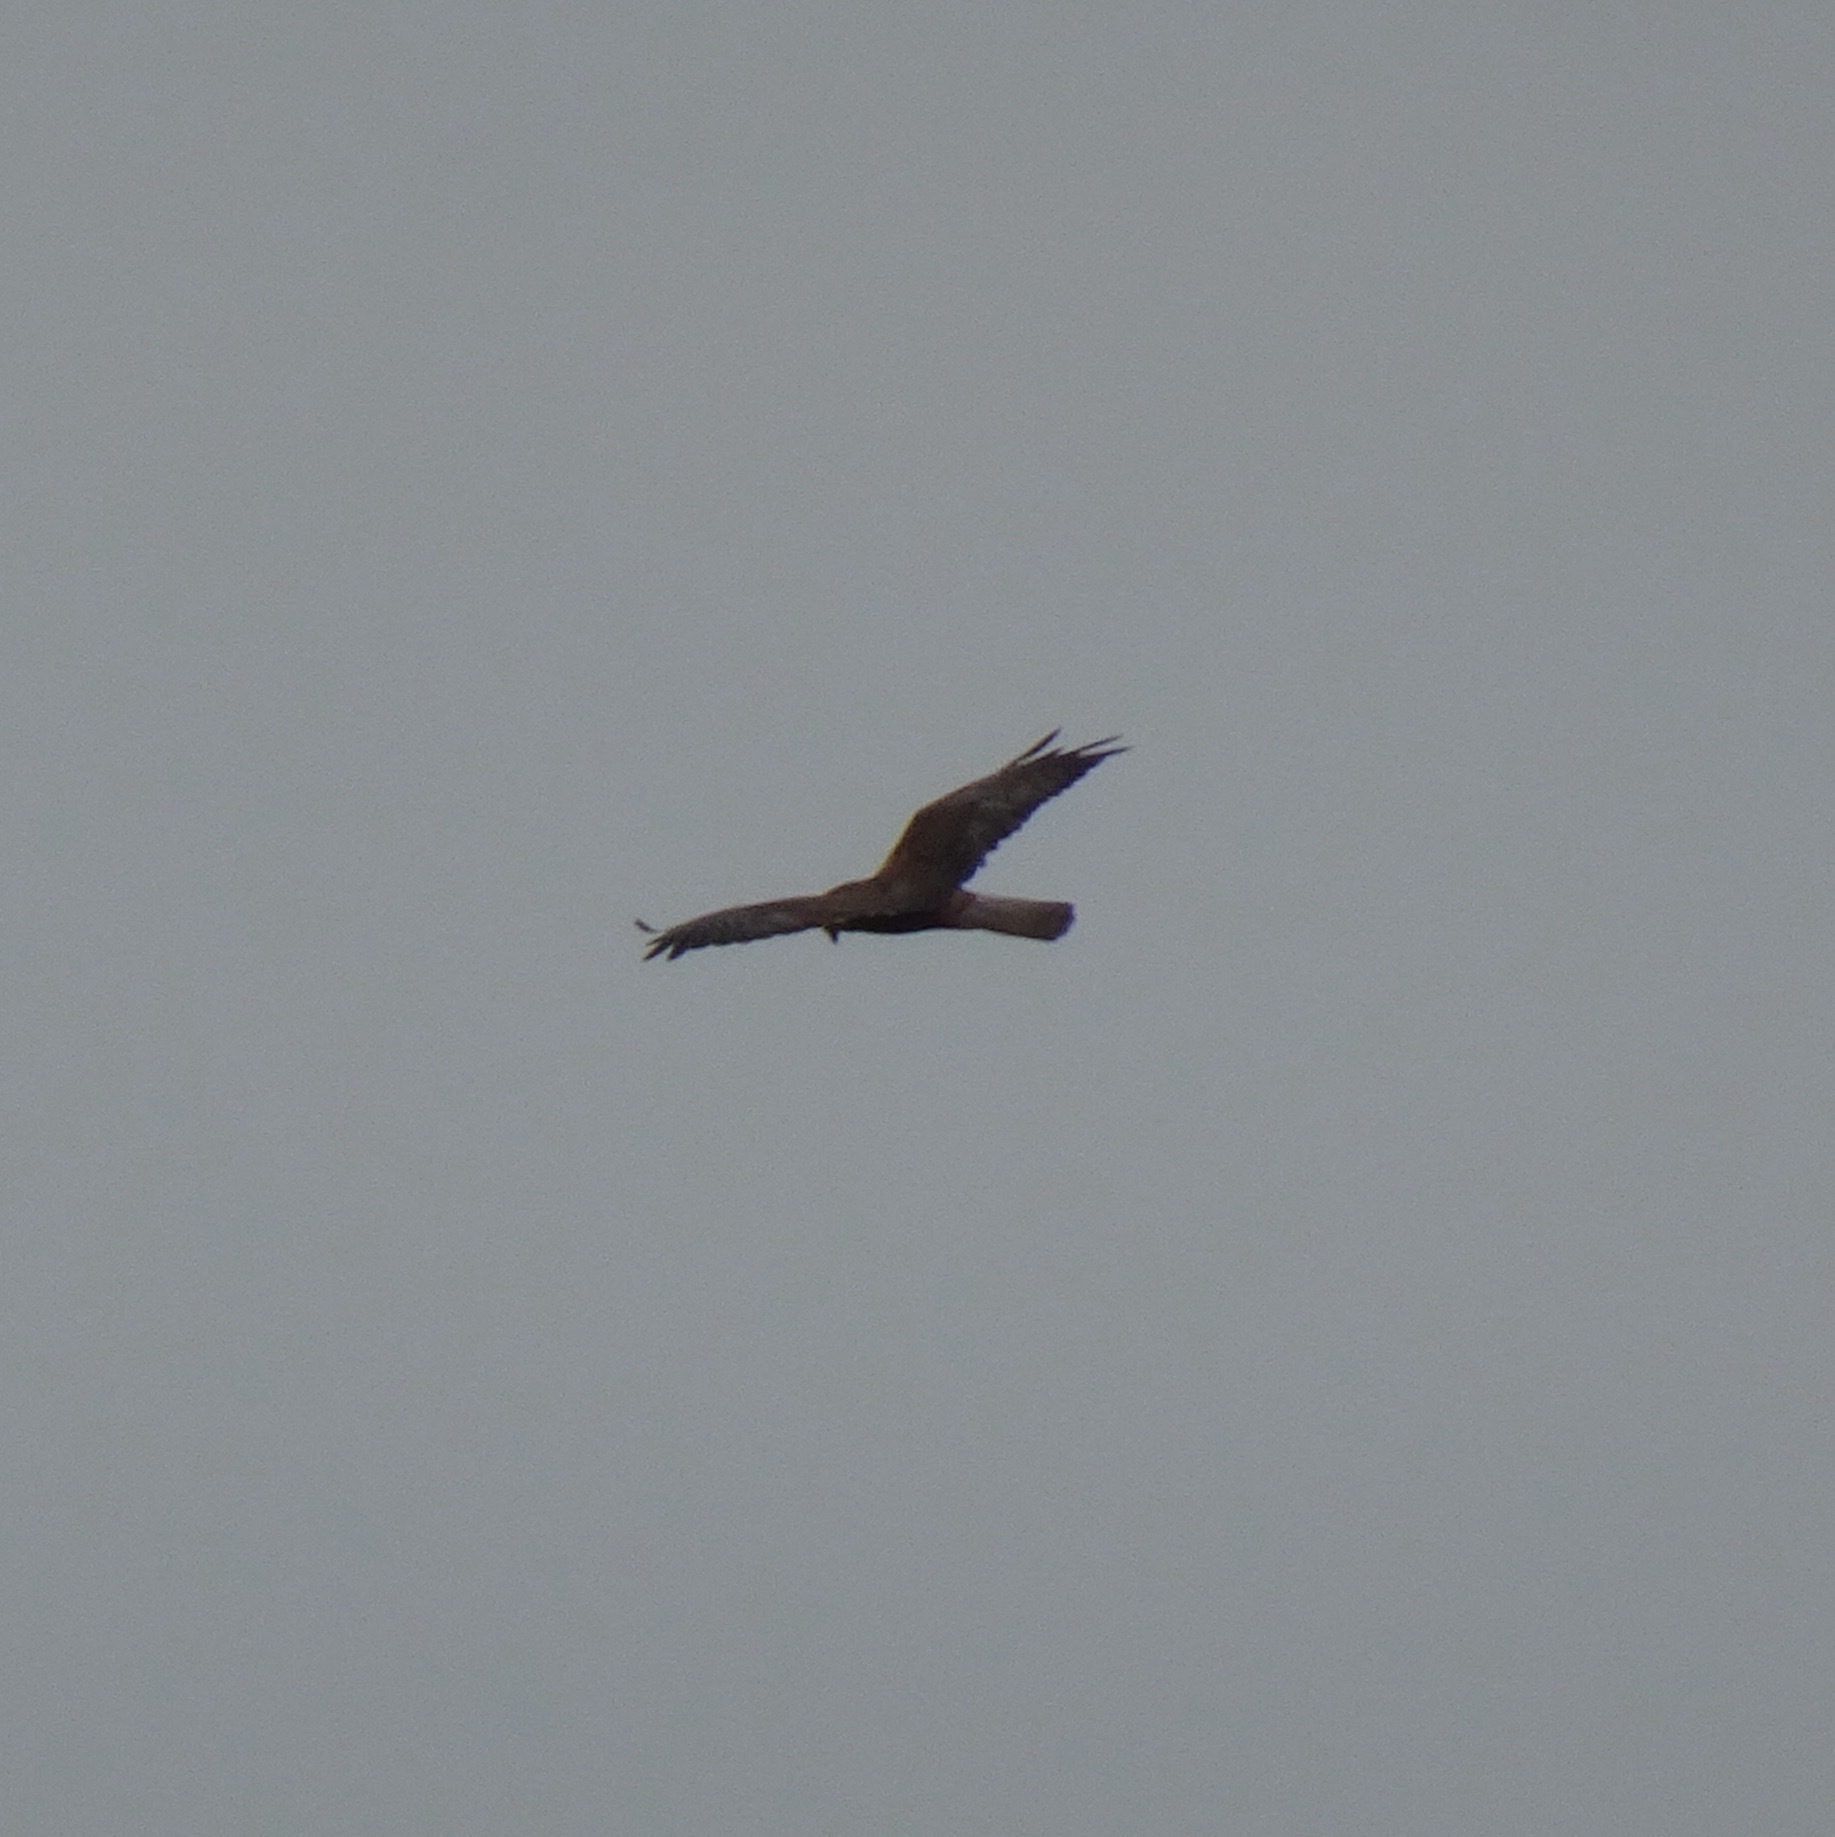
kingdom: Animalia
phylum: Chordata
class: Aves
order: Accipitriformes
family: Accipitridae
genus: Circus
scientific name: Circus aeruginosus
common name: Western marsh harrier
